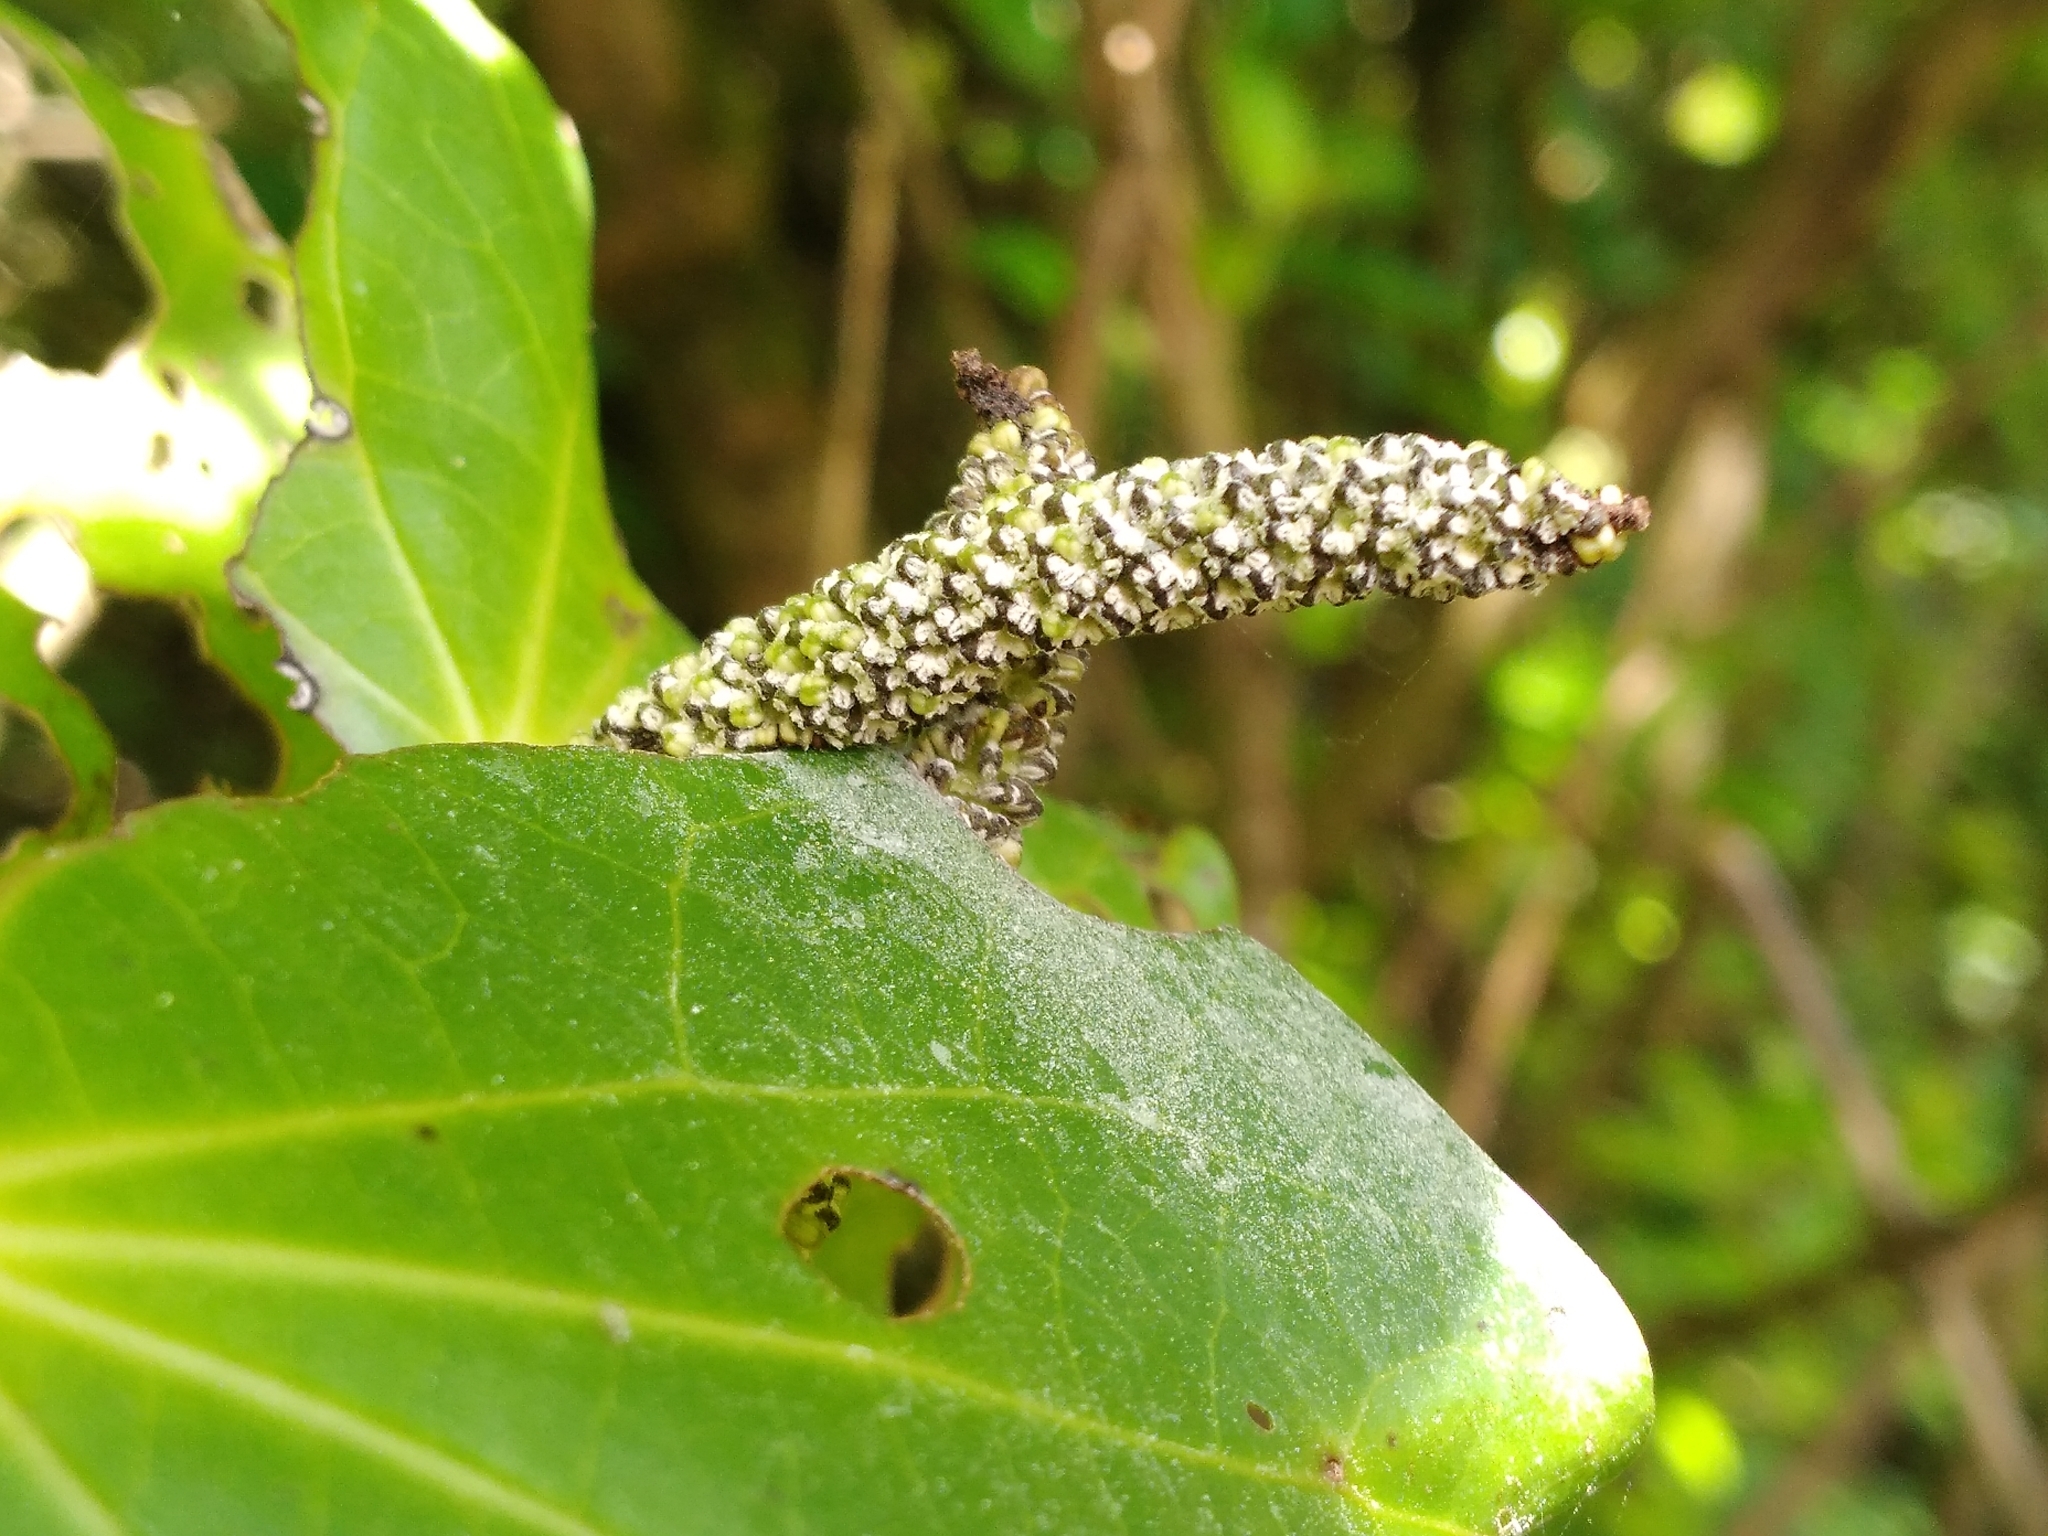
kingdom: Plantae
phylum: Tracheophyta
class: Magnoliopsida
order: Piperales
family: Piperaceae
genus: Macropiper
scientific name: Macropiper excelsum
